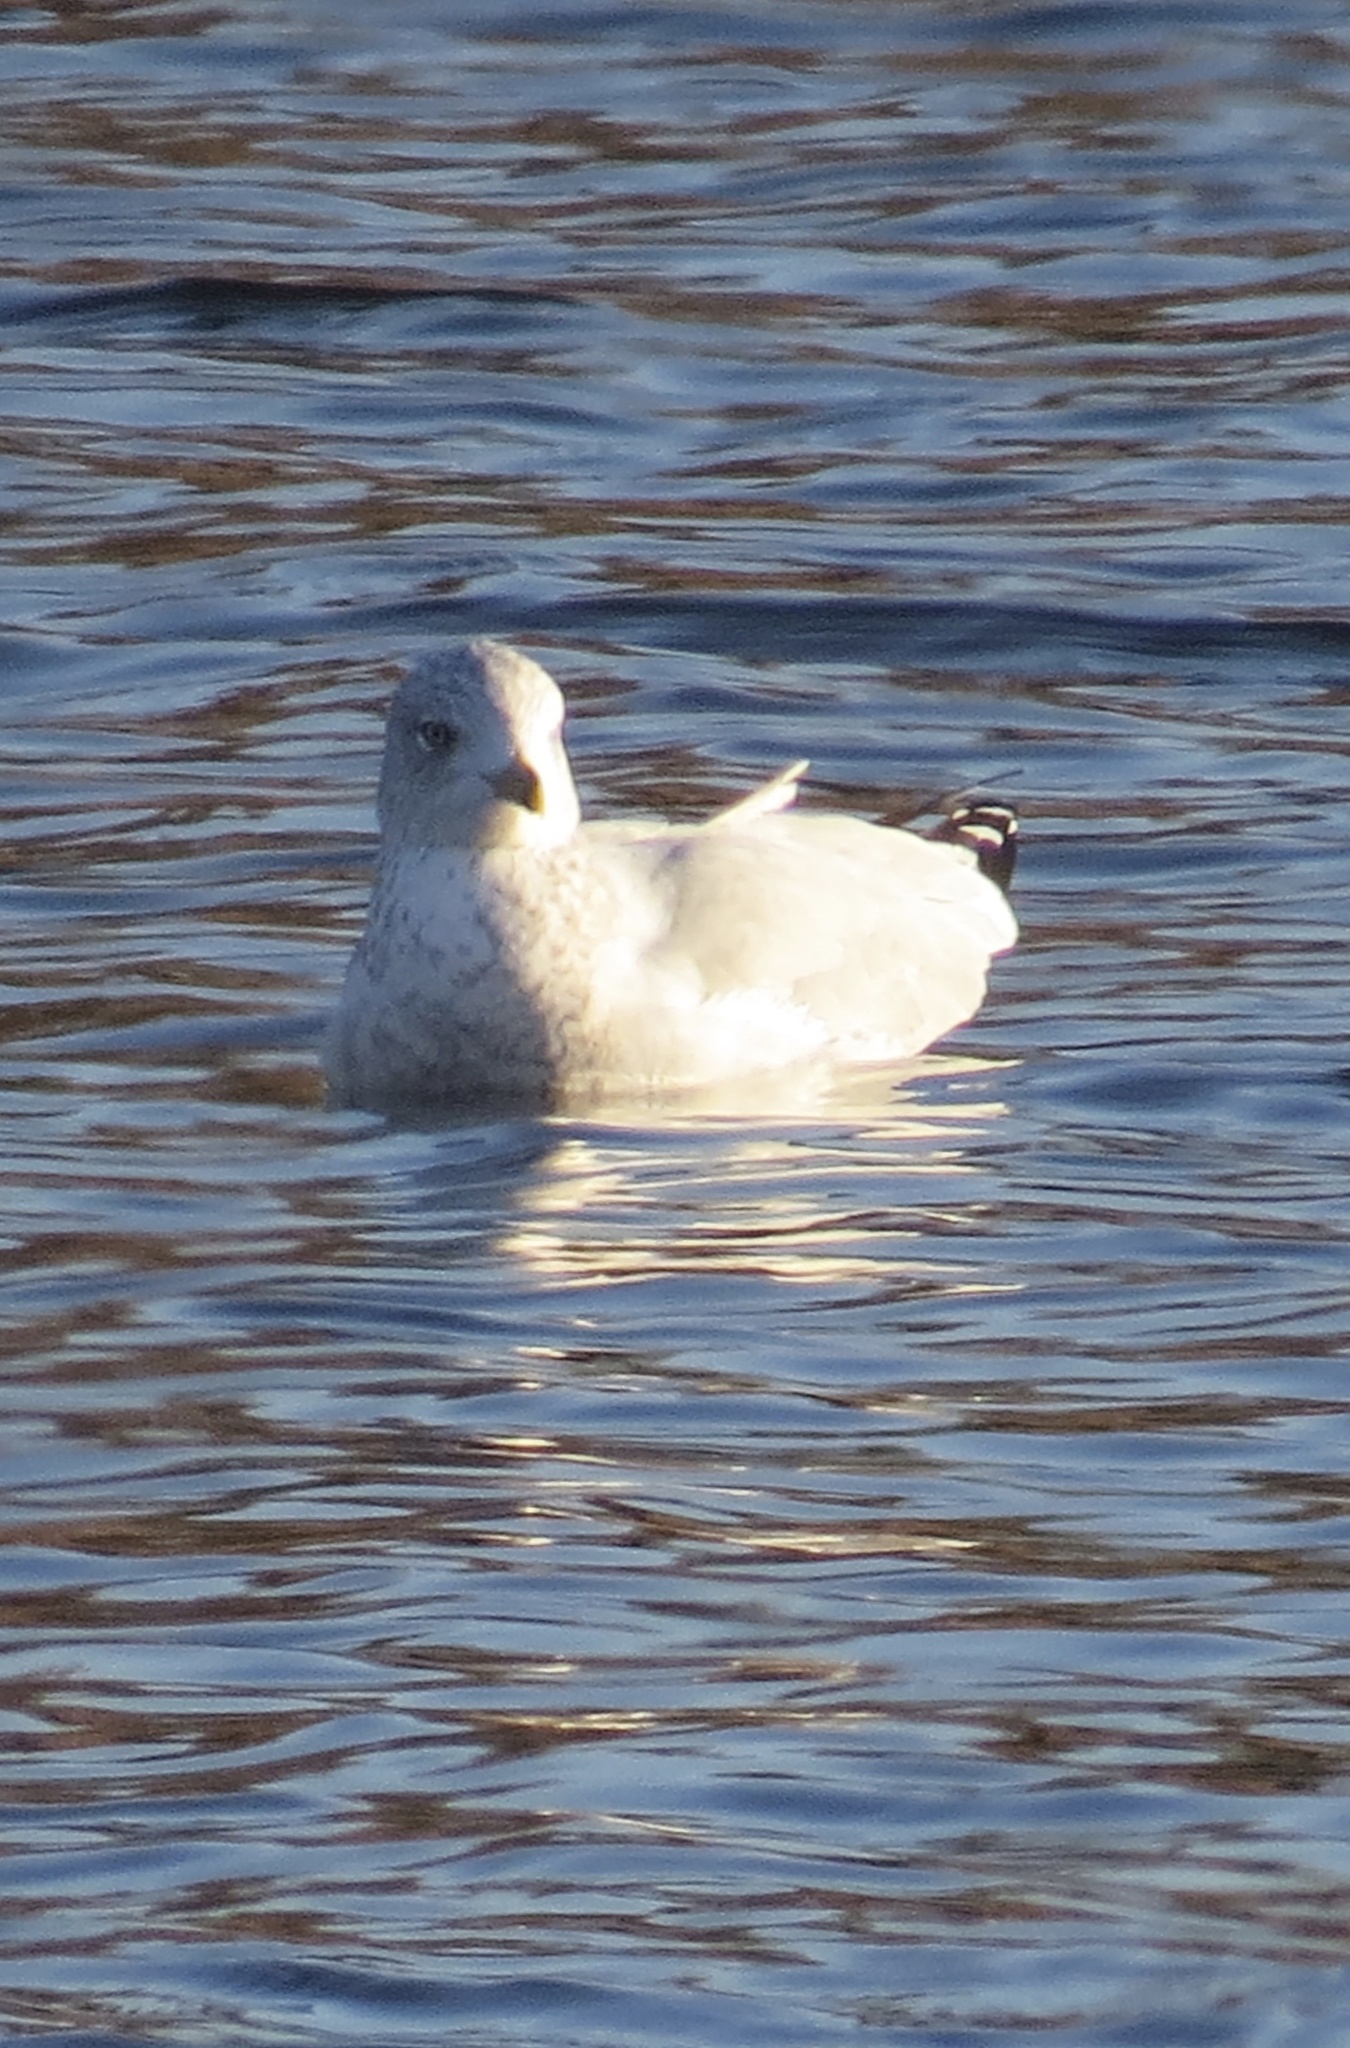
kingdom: Animalia
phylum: Chordata
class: Aves
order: Charadriiformes
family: Laridae
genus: Larus
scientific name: Larus delawarensis
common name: Ring-billed gull
